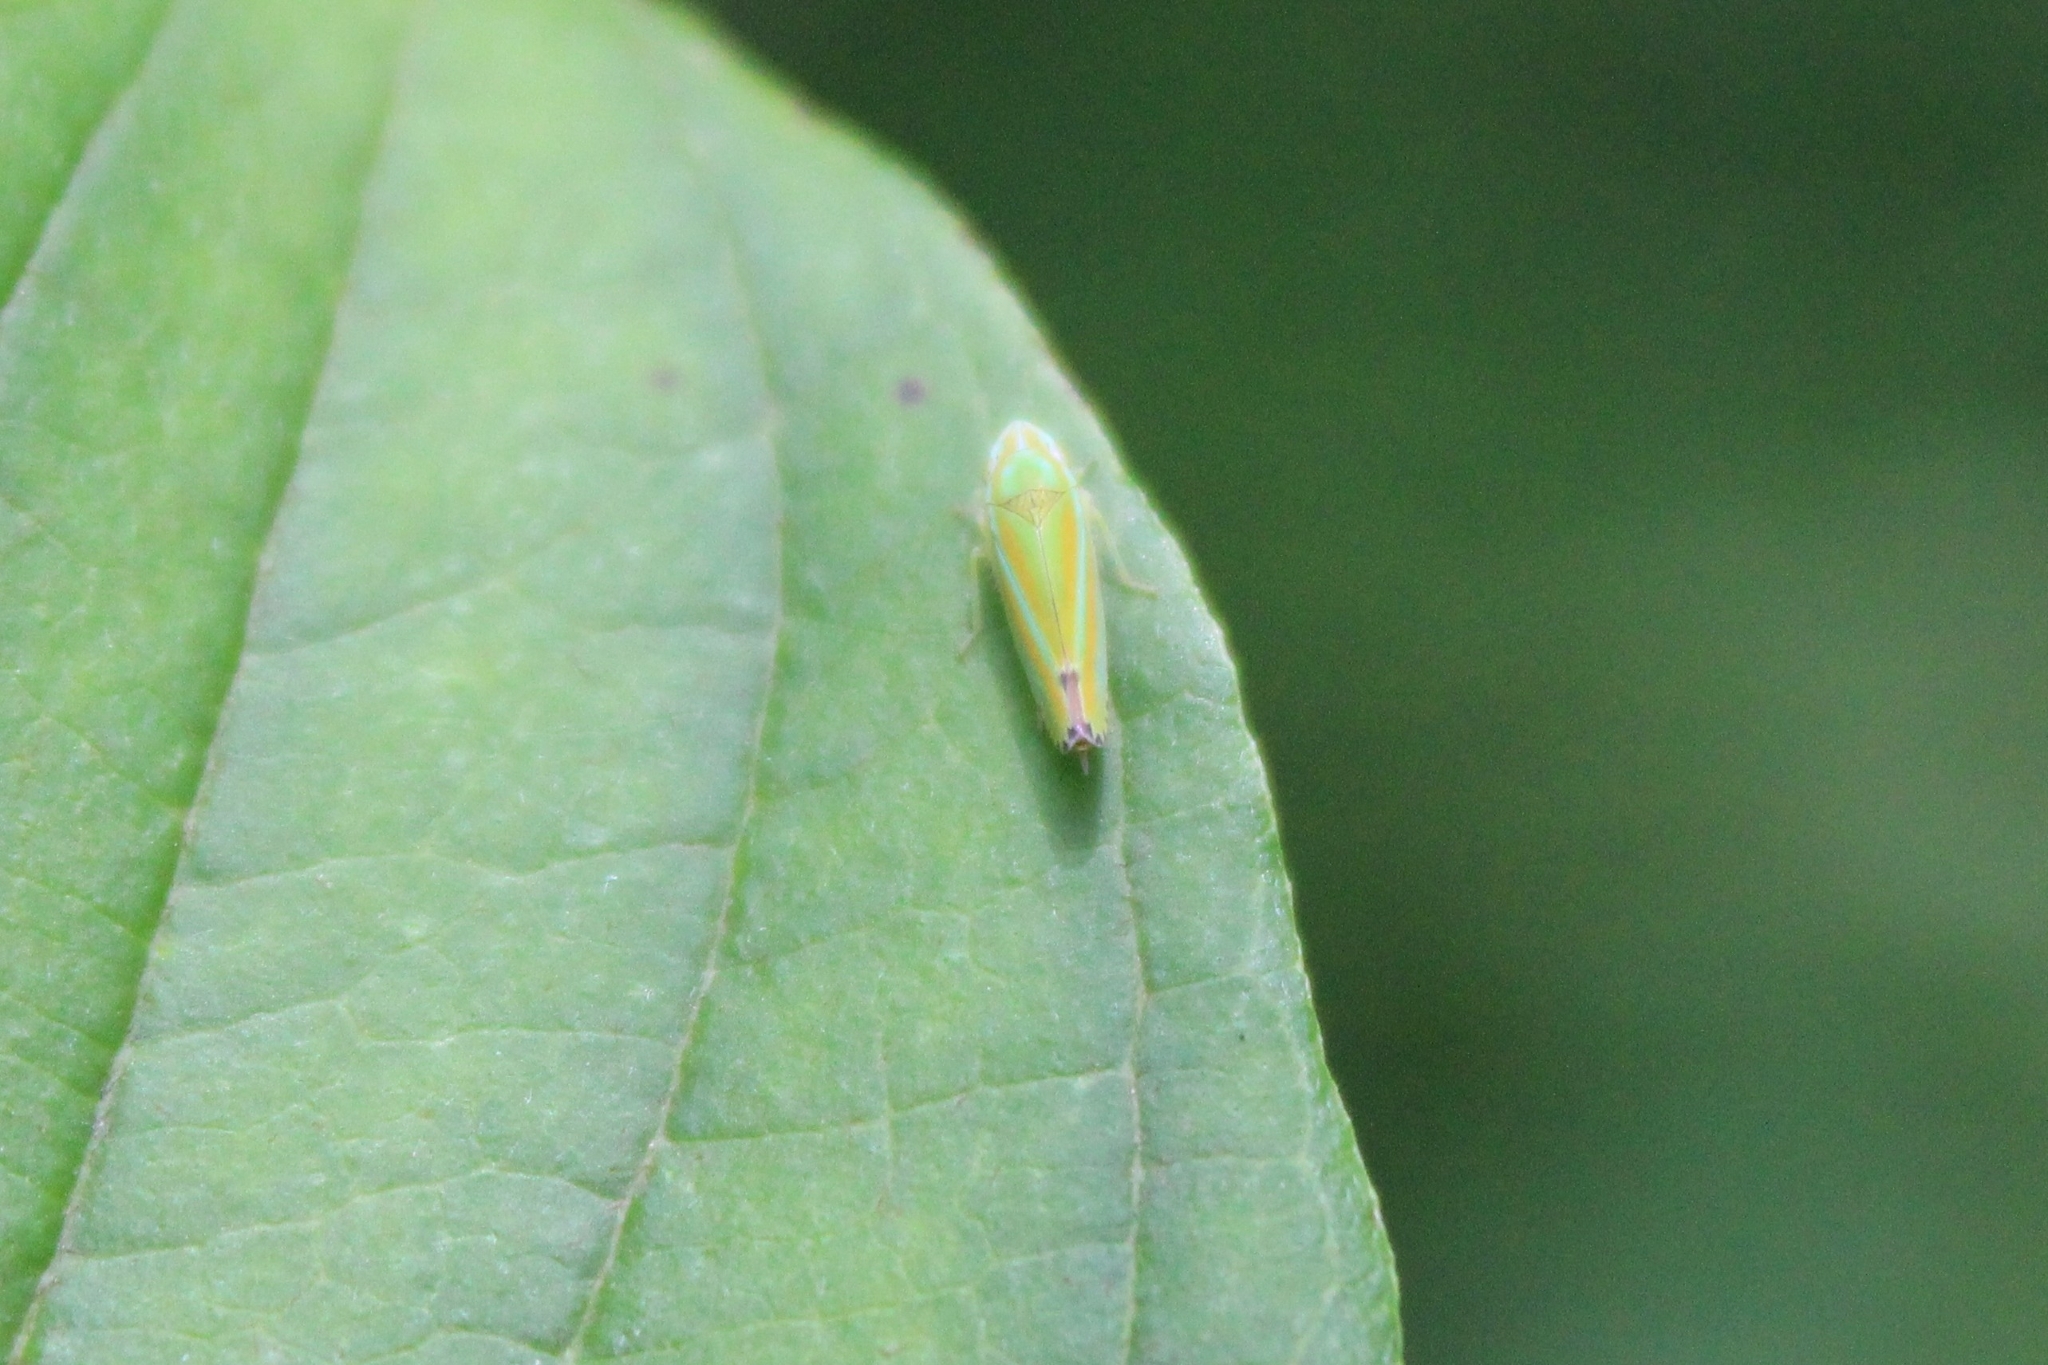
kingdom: Animalia
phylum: Arthropoda
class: Insecta
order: Hemiptera
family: Cicadellidae
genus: Graphocephala
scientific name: Graphocephala versuta
